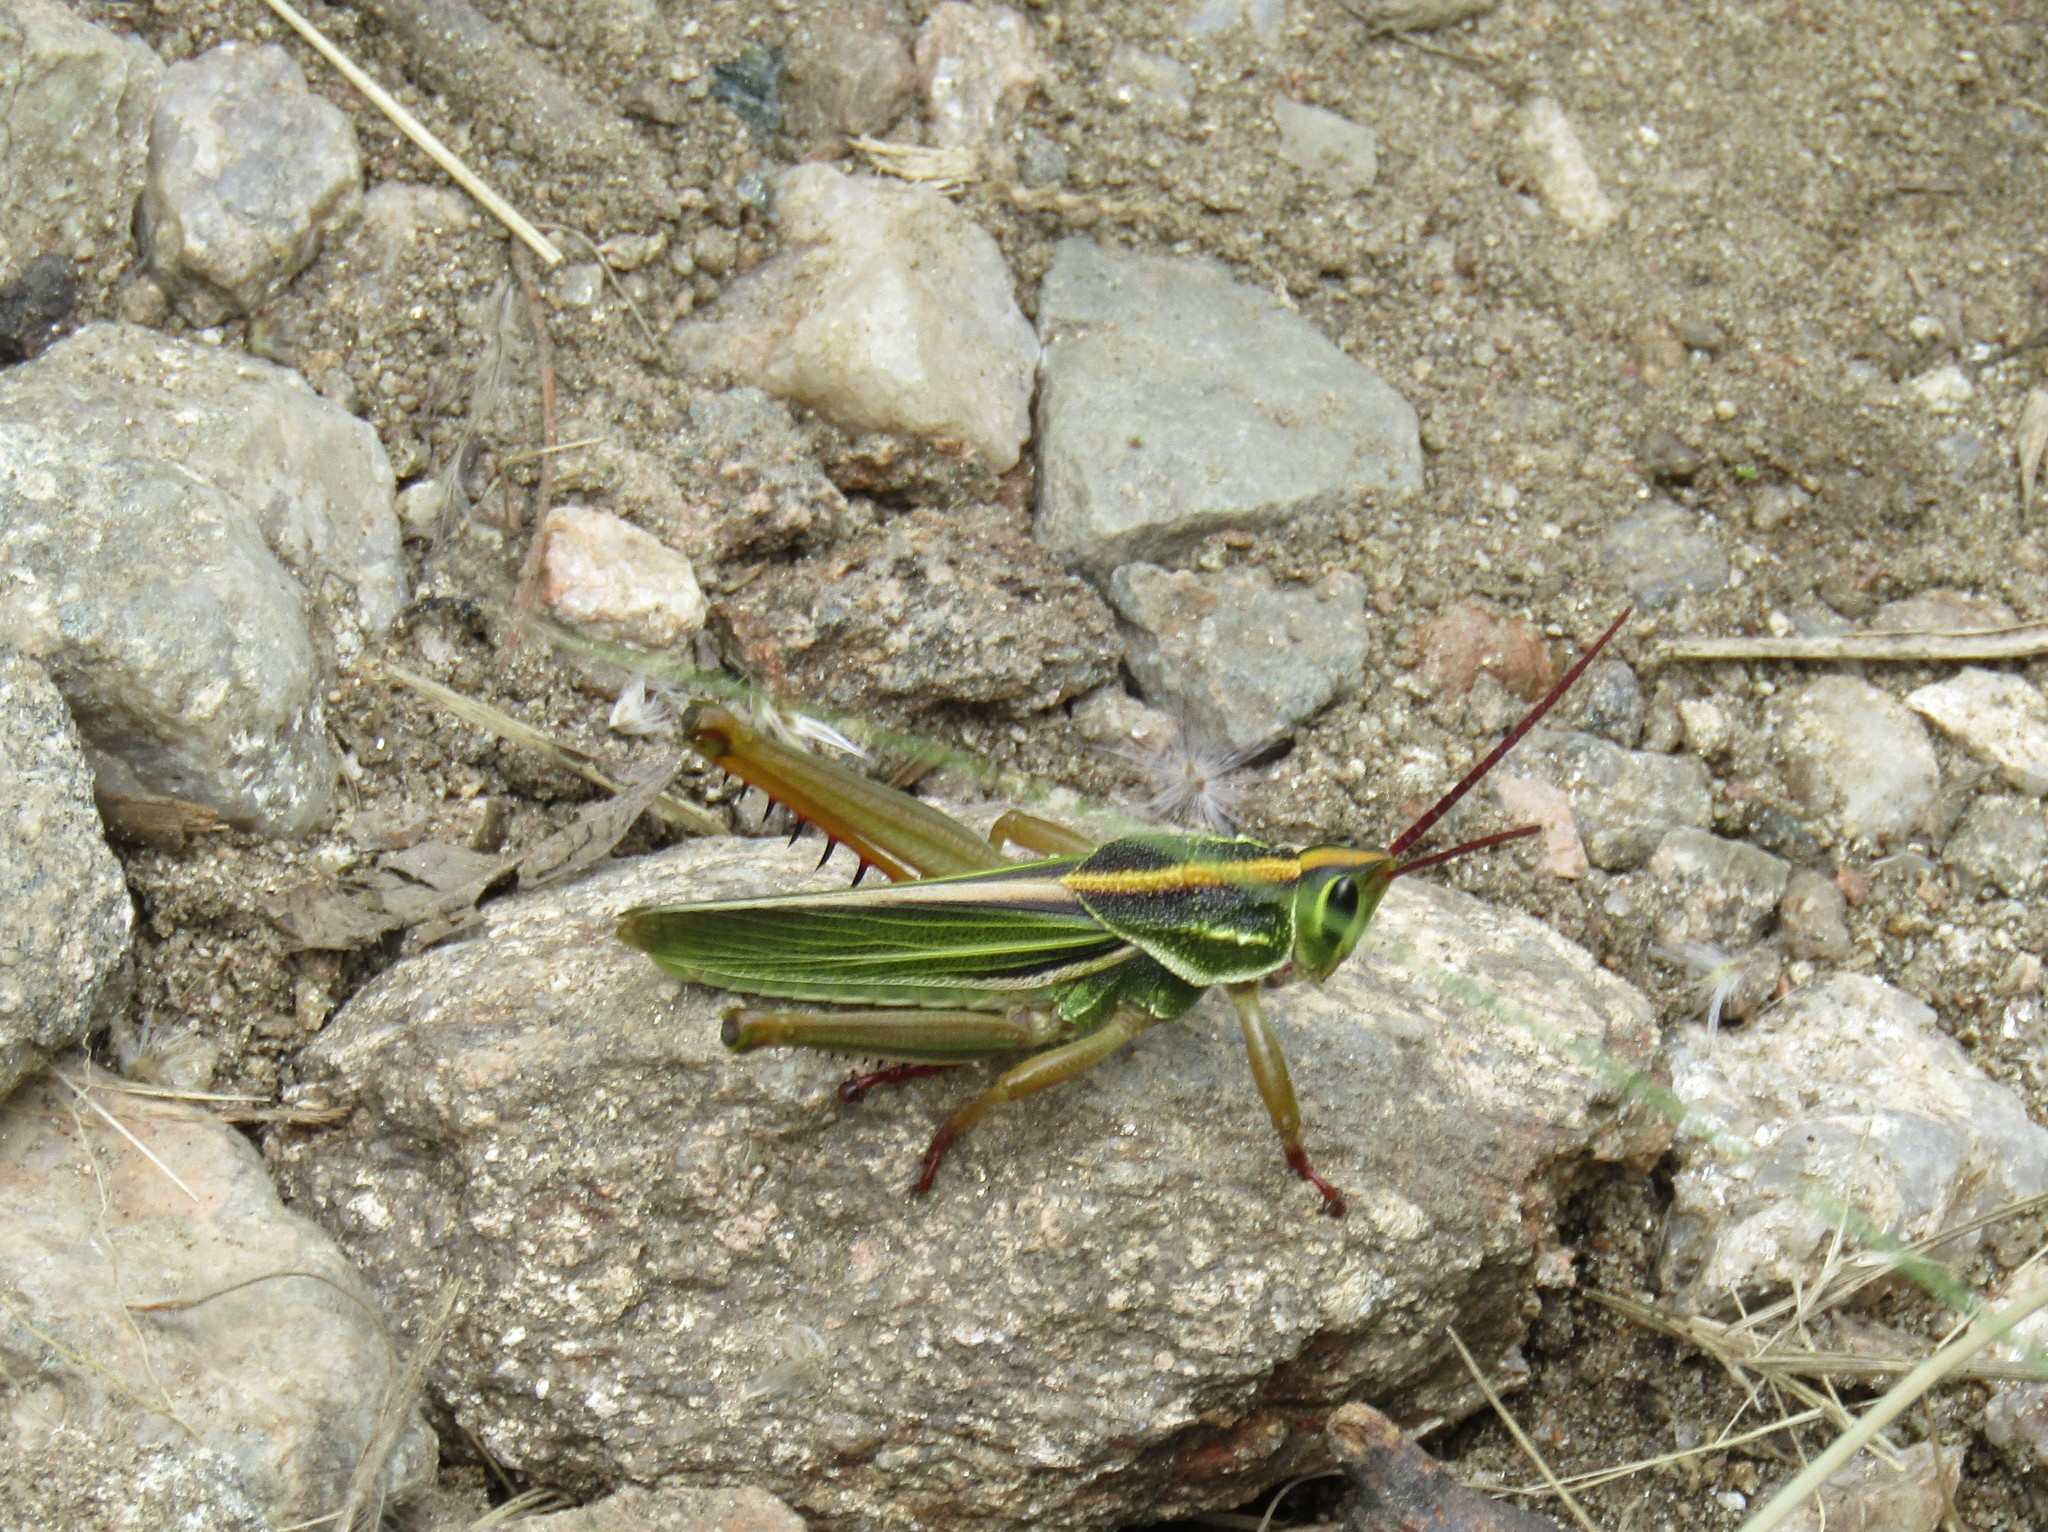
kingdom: Animalia
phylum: Arthropoda
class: Insecta
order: Orthoptera
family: Romaleidae
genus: Staleochlora
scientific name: Staleochlora viridicata
